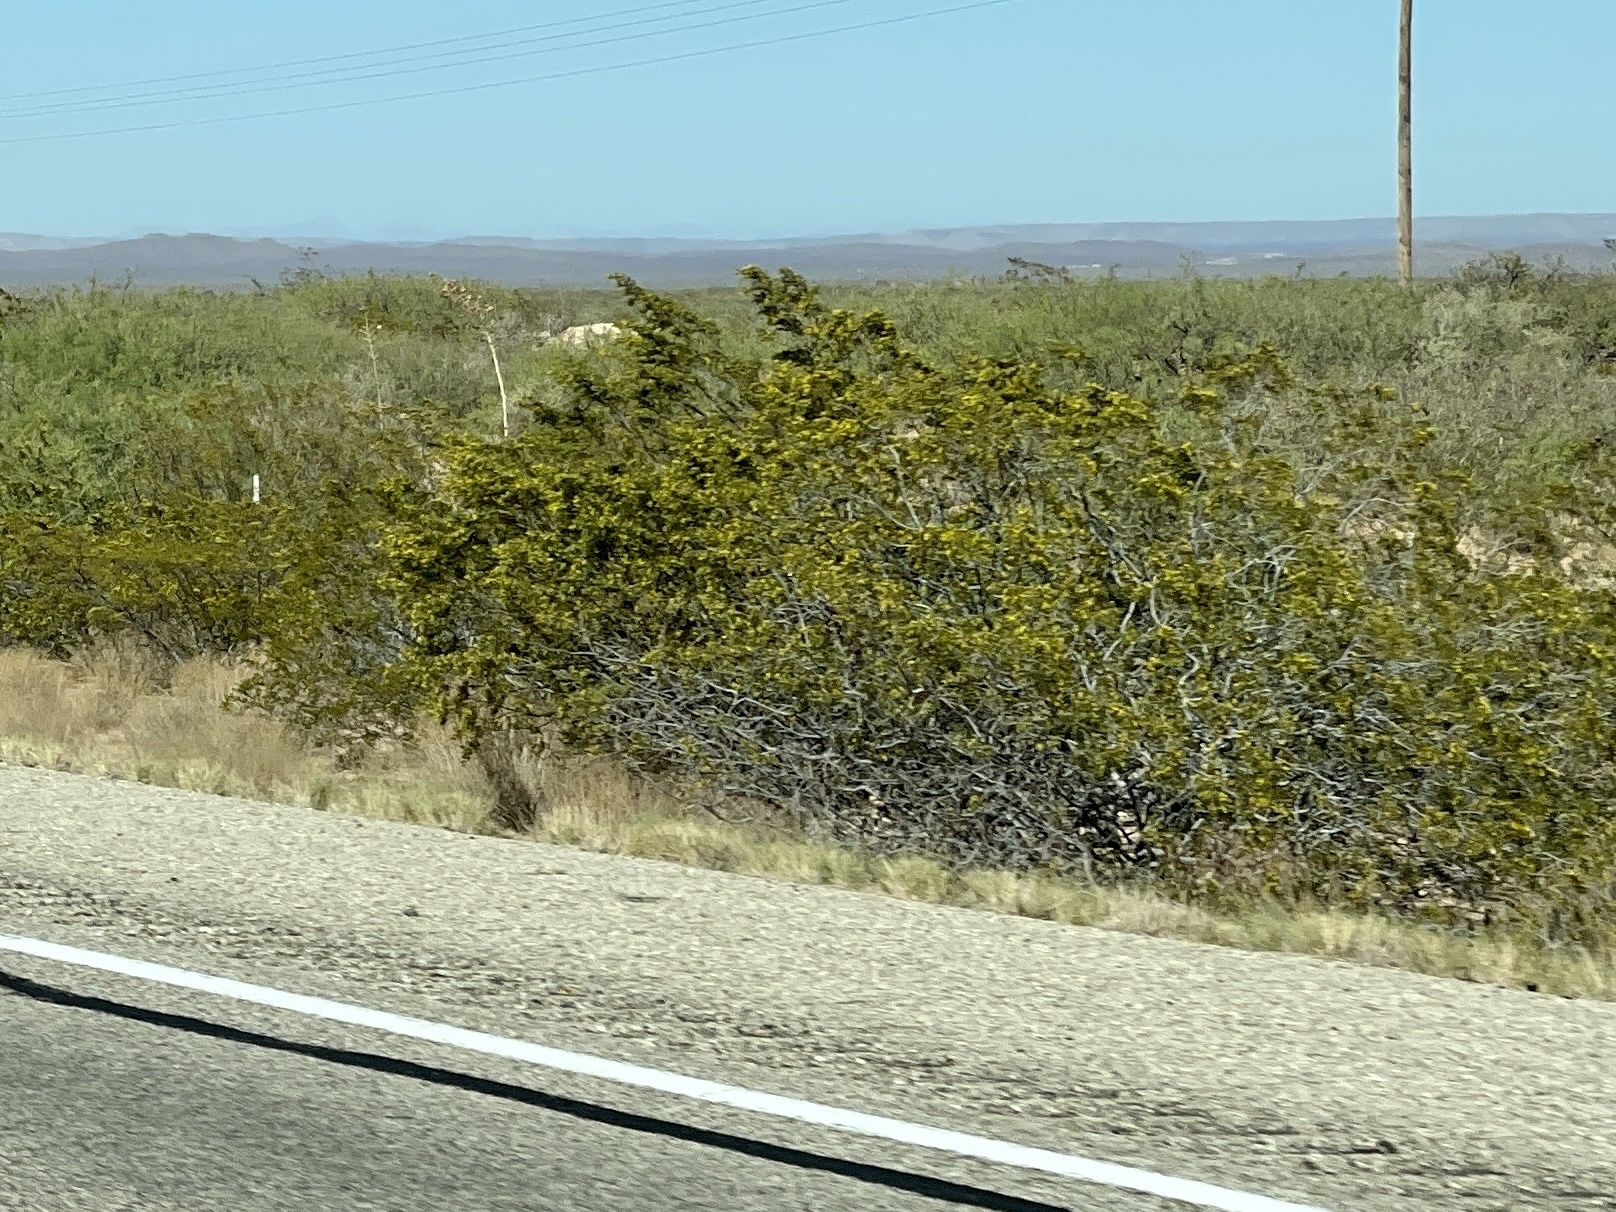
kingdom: Plantae
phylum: Tracheophyta
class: Magnoliopsida
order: Zygophyllales
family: Zygophyllaceae
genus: Larrea
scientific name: Larrea tridentata
